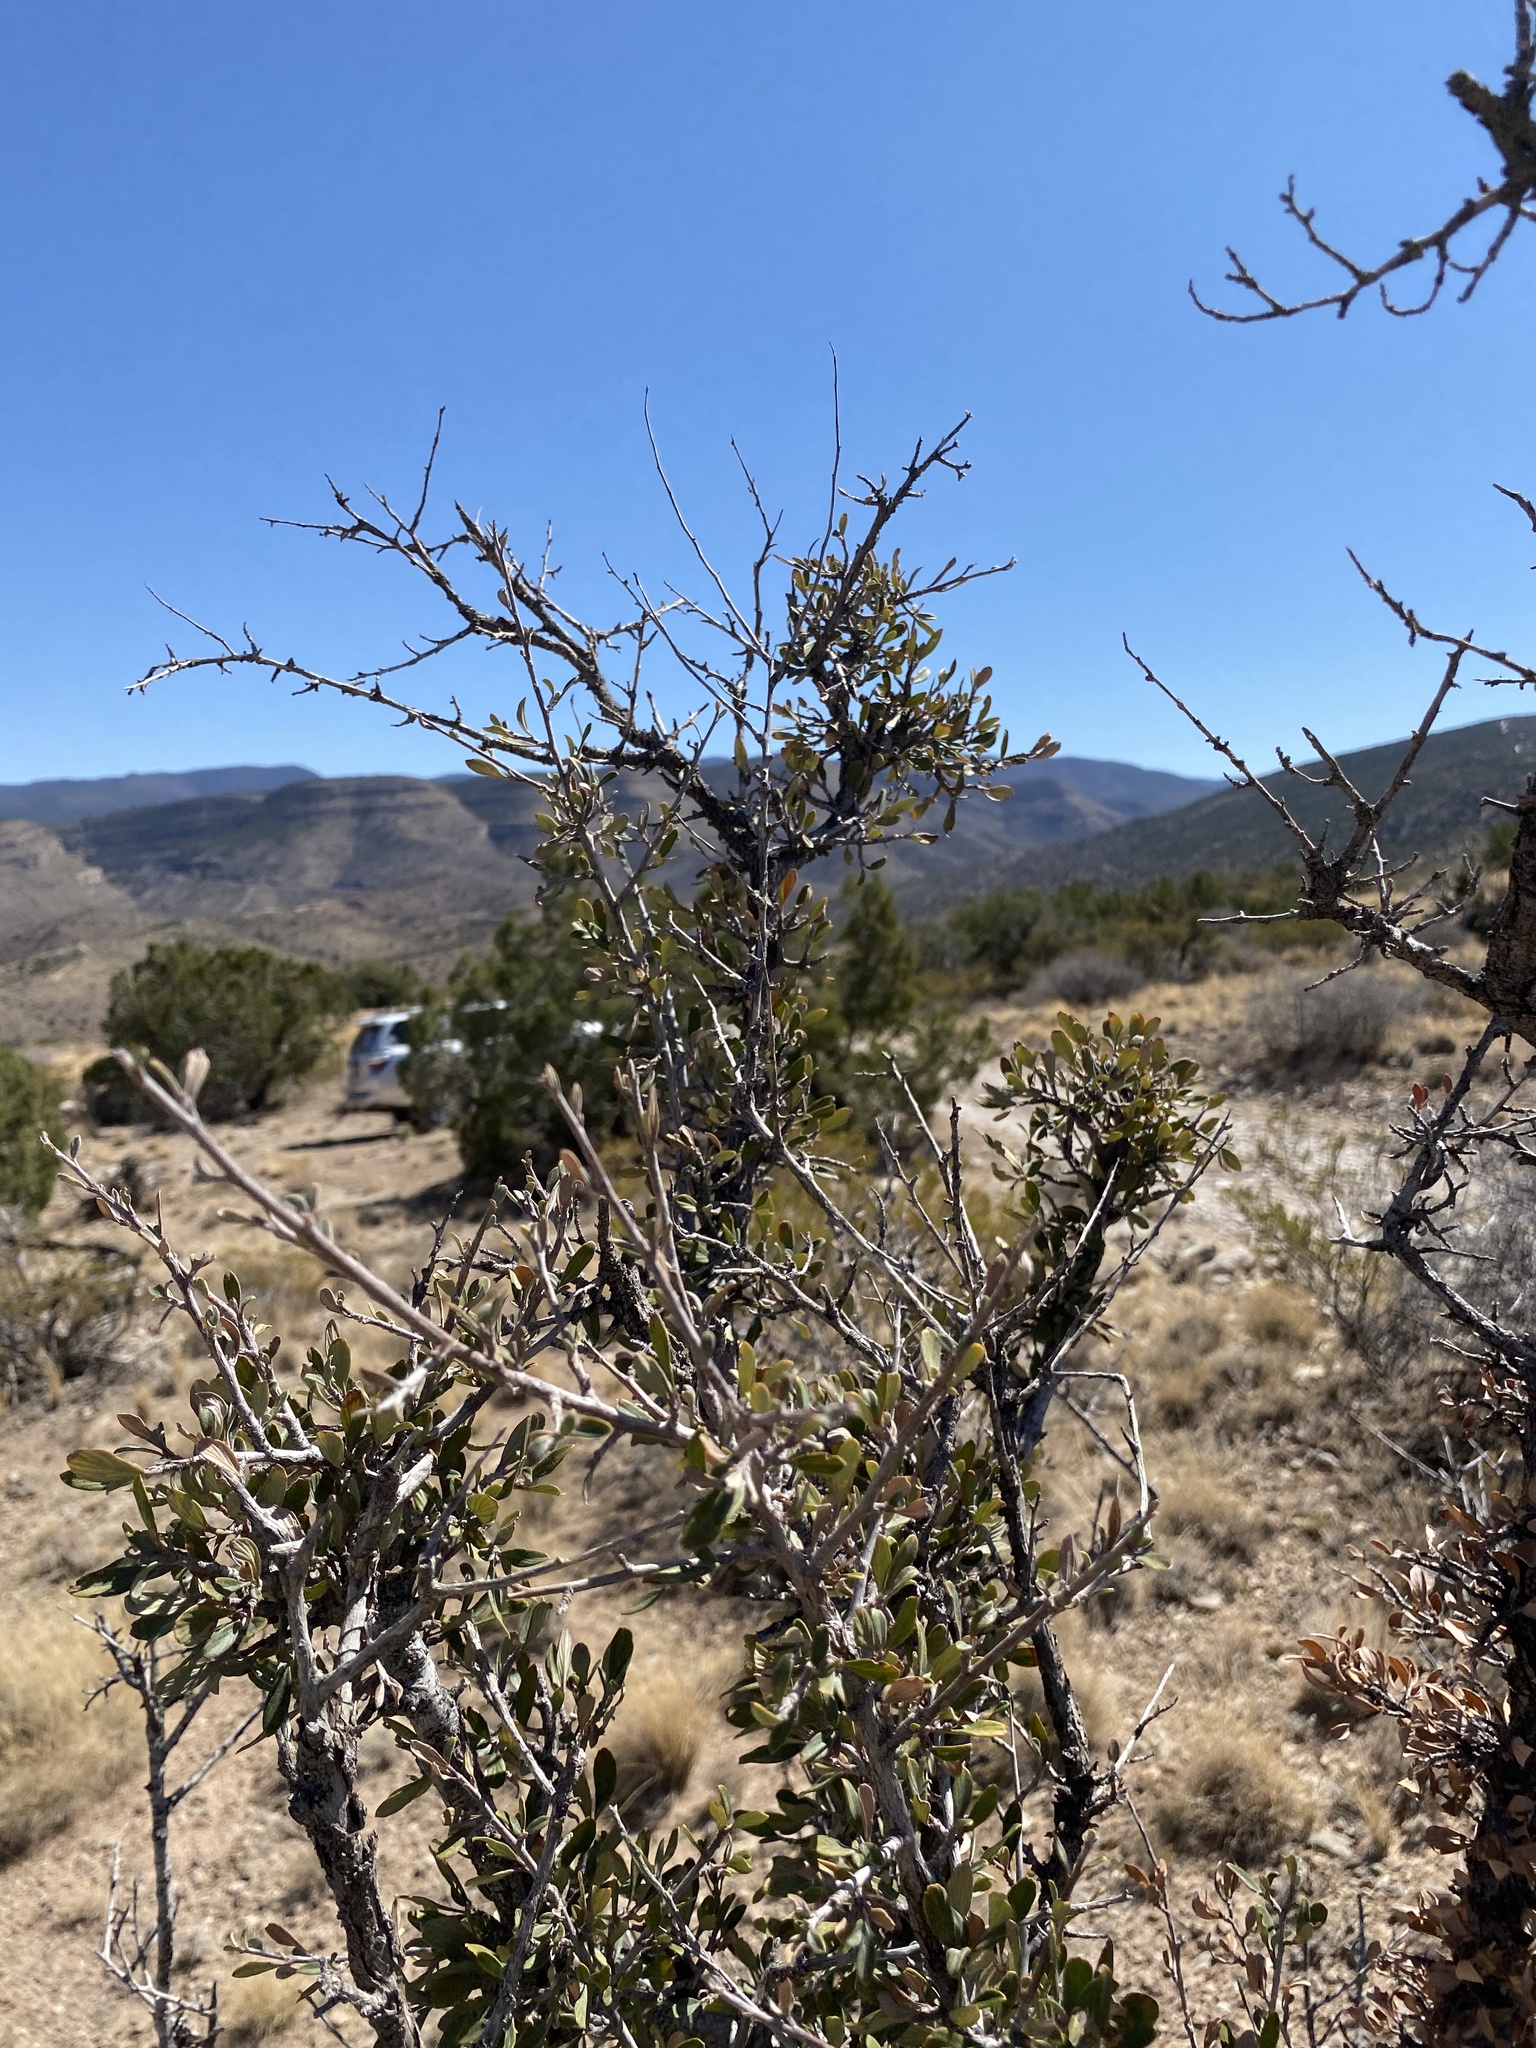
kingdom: Plantae
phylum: Tracheophyta
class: Magnoliopsida
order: Rosales
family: Rosaceae
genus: Cercocarpus
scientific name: Cercocarpus breviflorus
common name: Wright's mountain-mahogany
